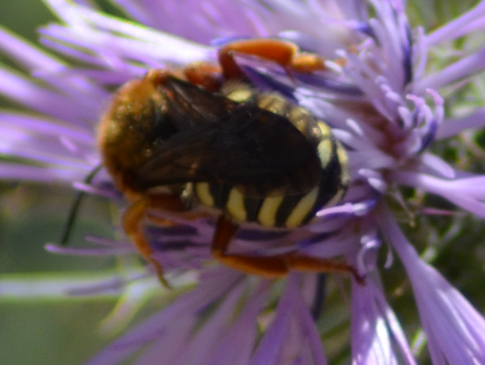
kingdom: Animalia
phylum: Arthropoda
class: Insecta
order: Hymenoptera
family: Megachilidae
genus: Rhodanthidium
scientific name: Rhodanthidium septemdentatum
